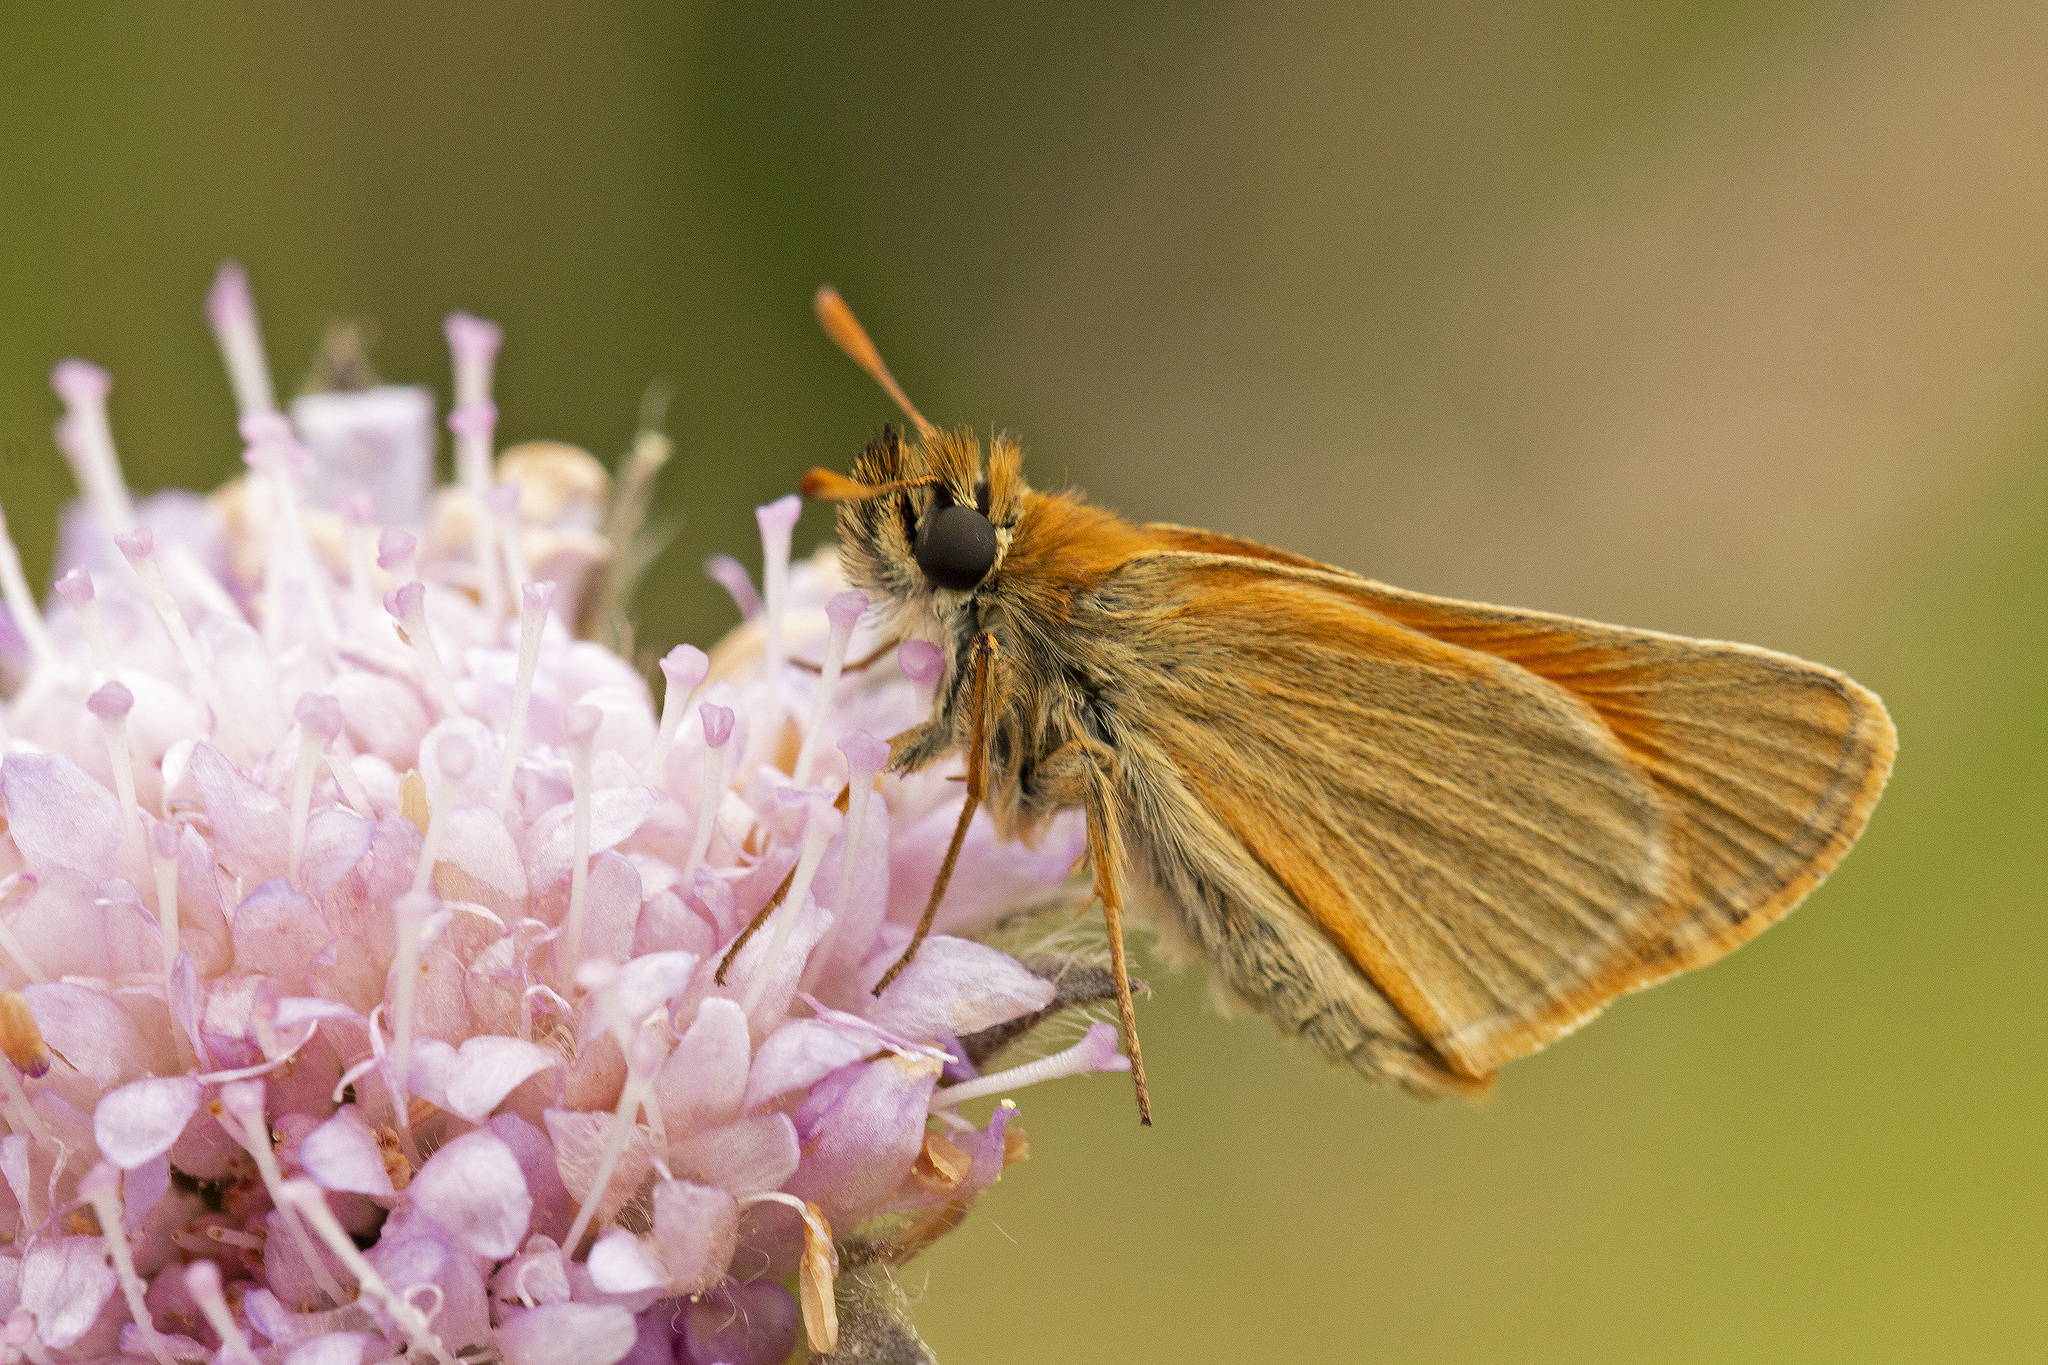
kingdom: Animalia
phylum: Arthropoda
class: Insecta
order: Lepidoptera
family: Hesperiidae
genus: Thymelicus
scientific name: Thymelicus sylvestris
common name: Small skipper
